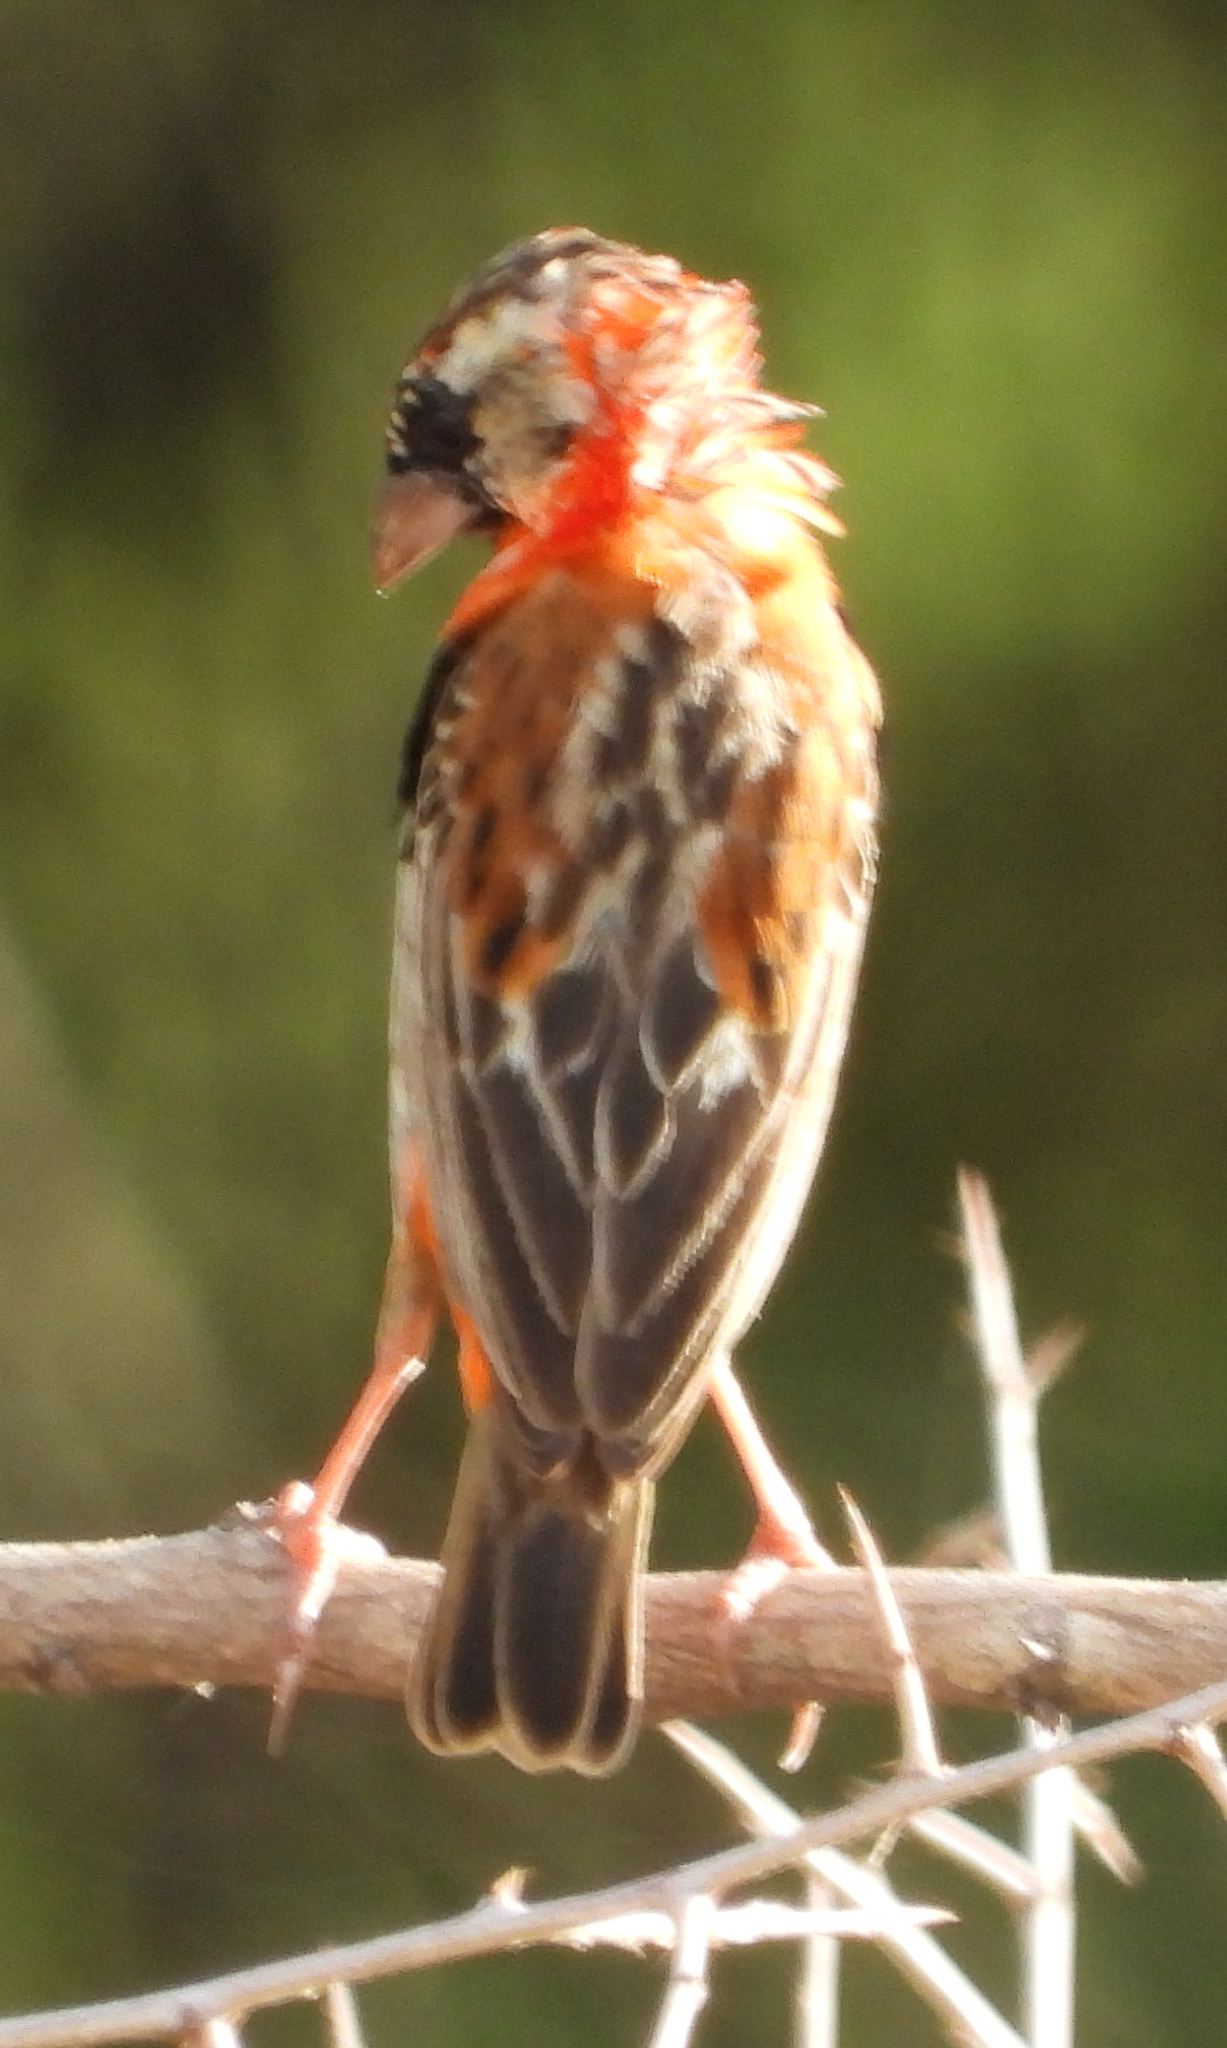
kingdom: Animalia
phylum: Chordata
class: Aves
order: Passeriformes
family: Ploceidae
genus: Euplectes
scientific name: Euplectes orix
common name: Southern red bishop
